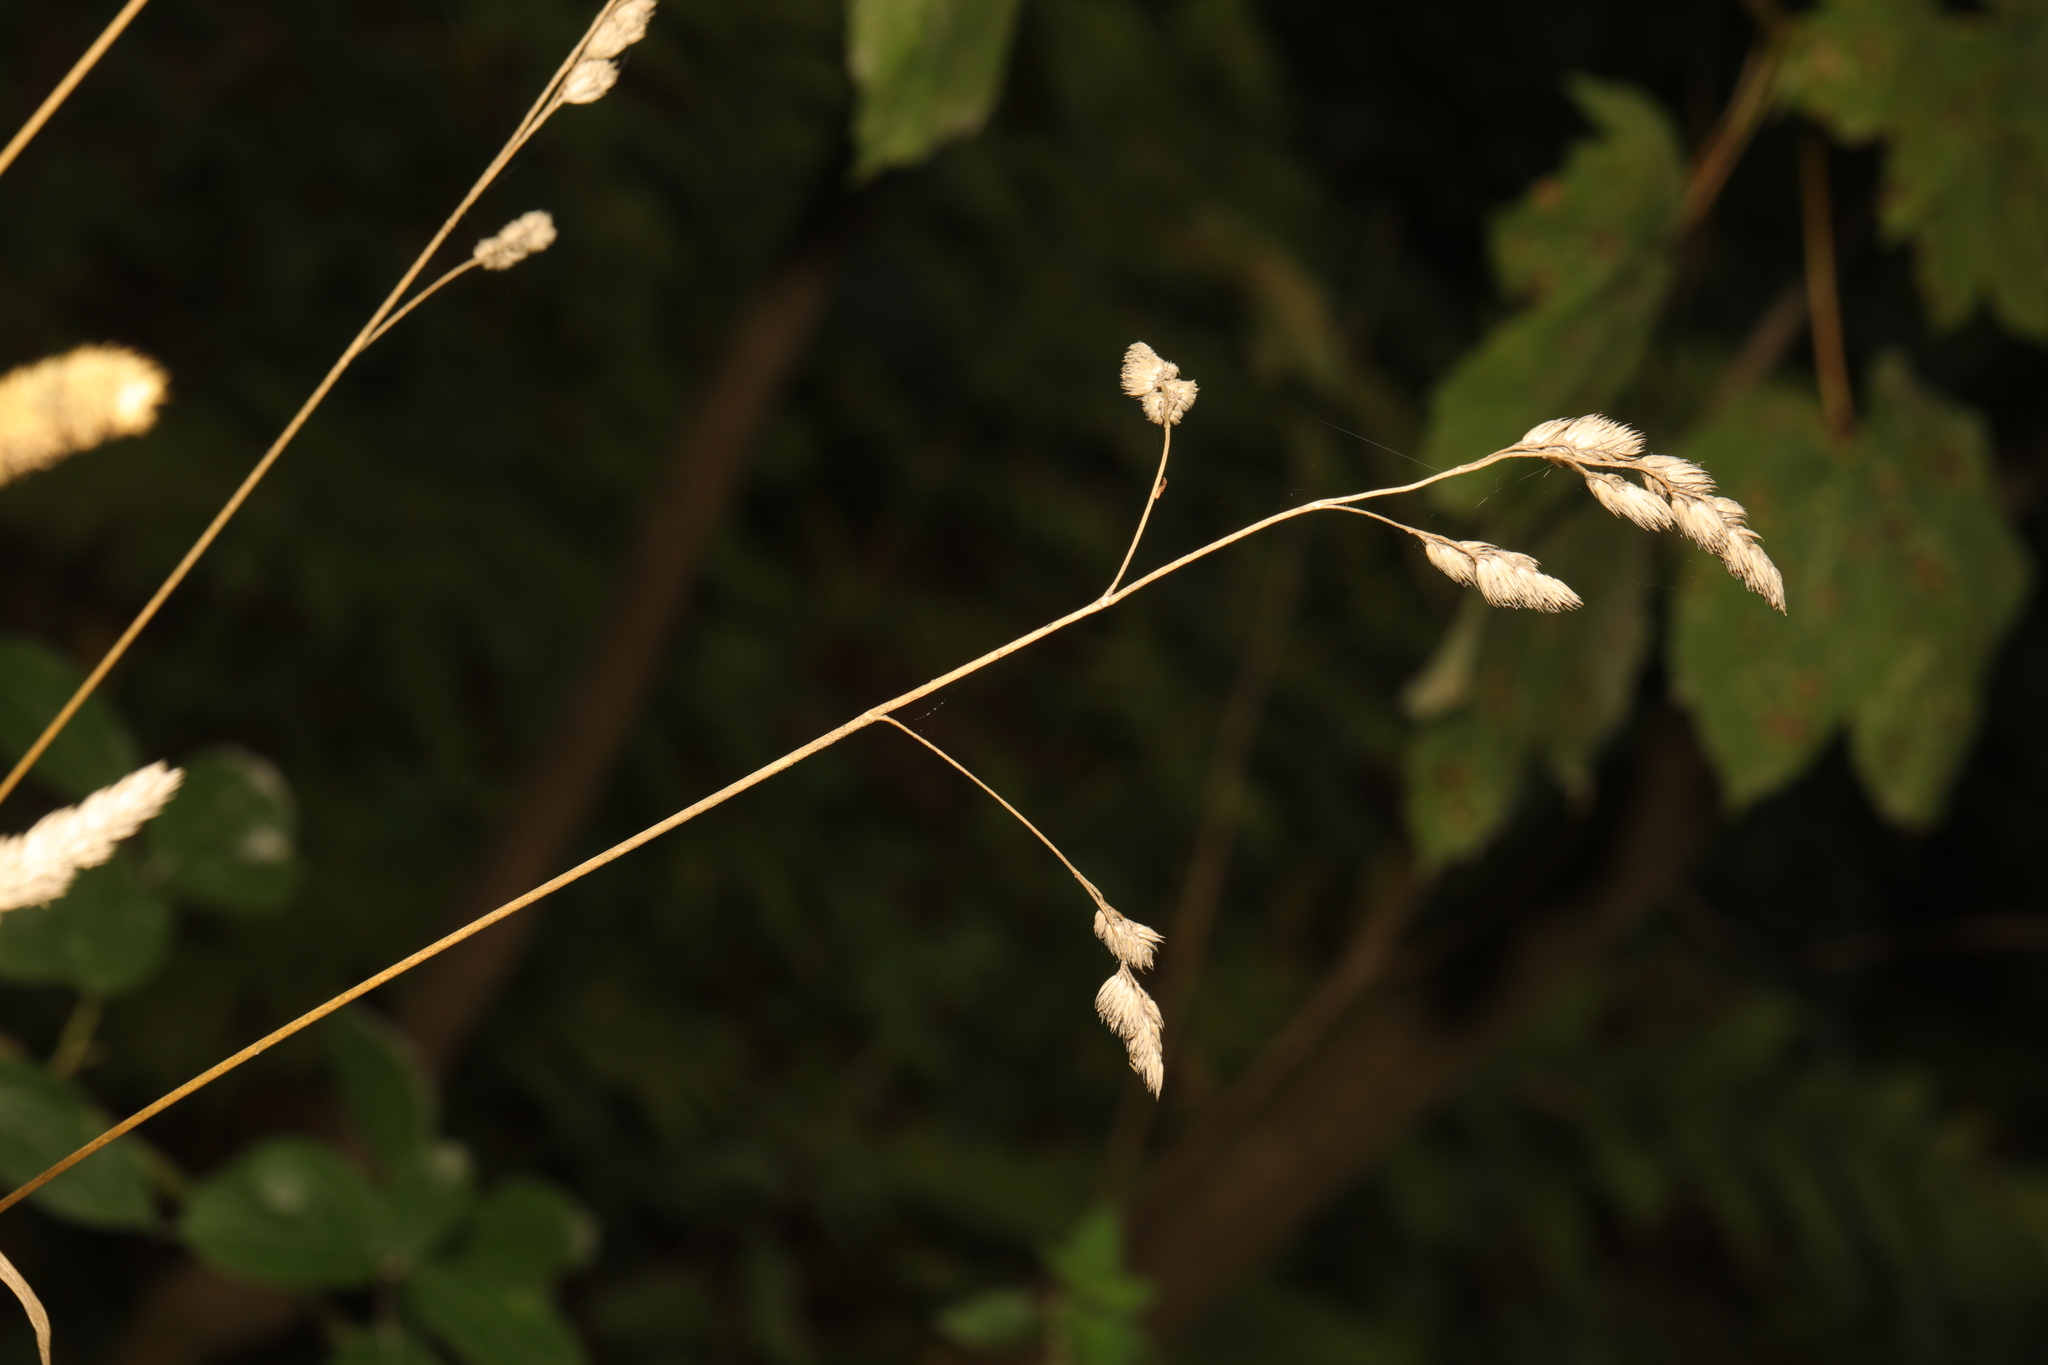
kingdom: Plantae
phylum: Tracheophyta
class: Liliopsida
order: Poales
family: Poaceae
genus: Dactylis
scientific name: Dactylis glomerata
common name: Orchardgrass
